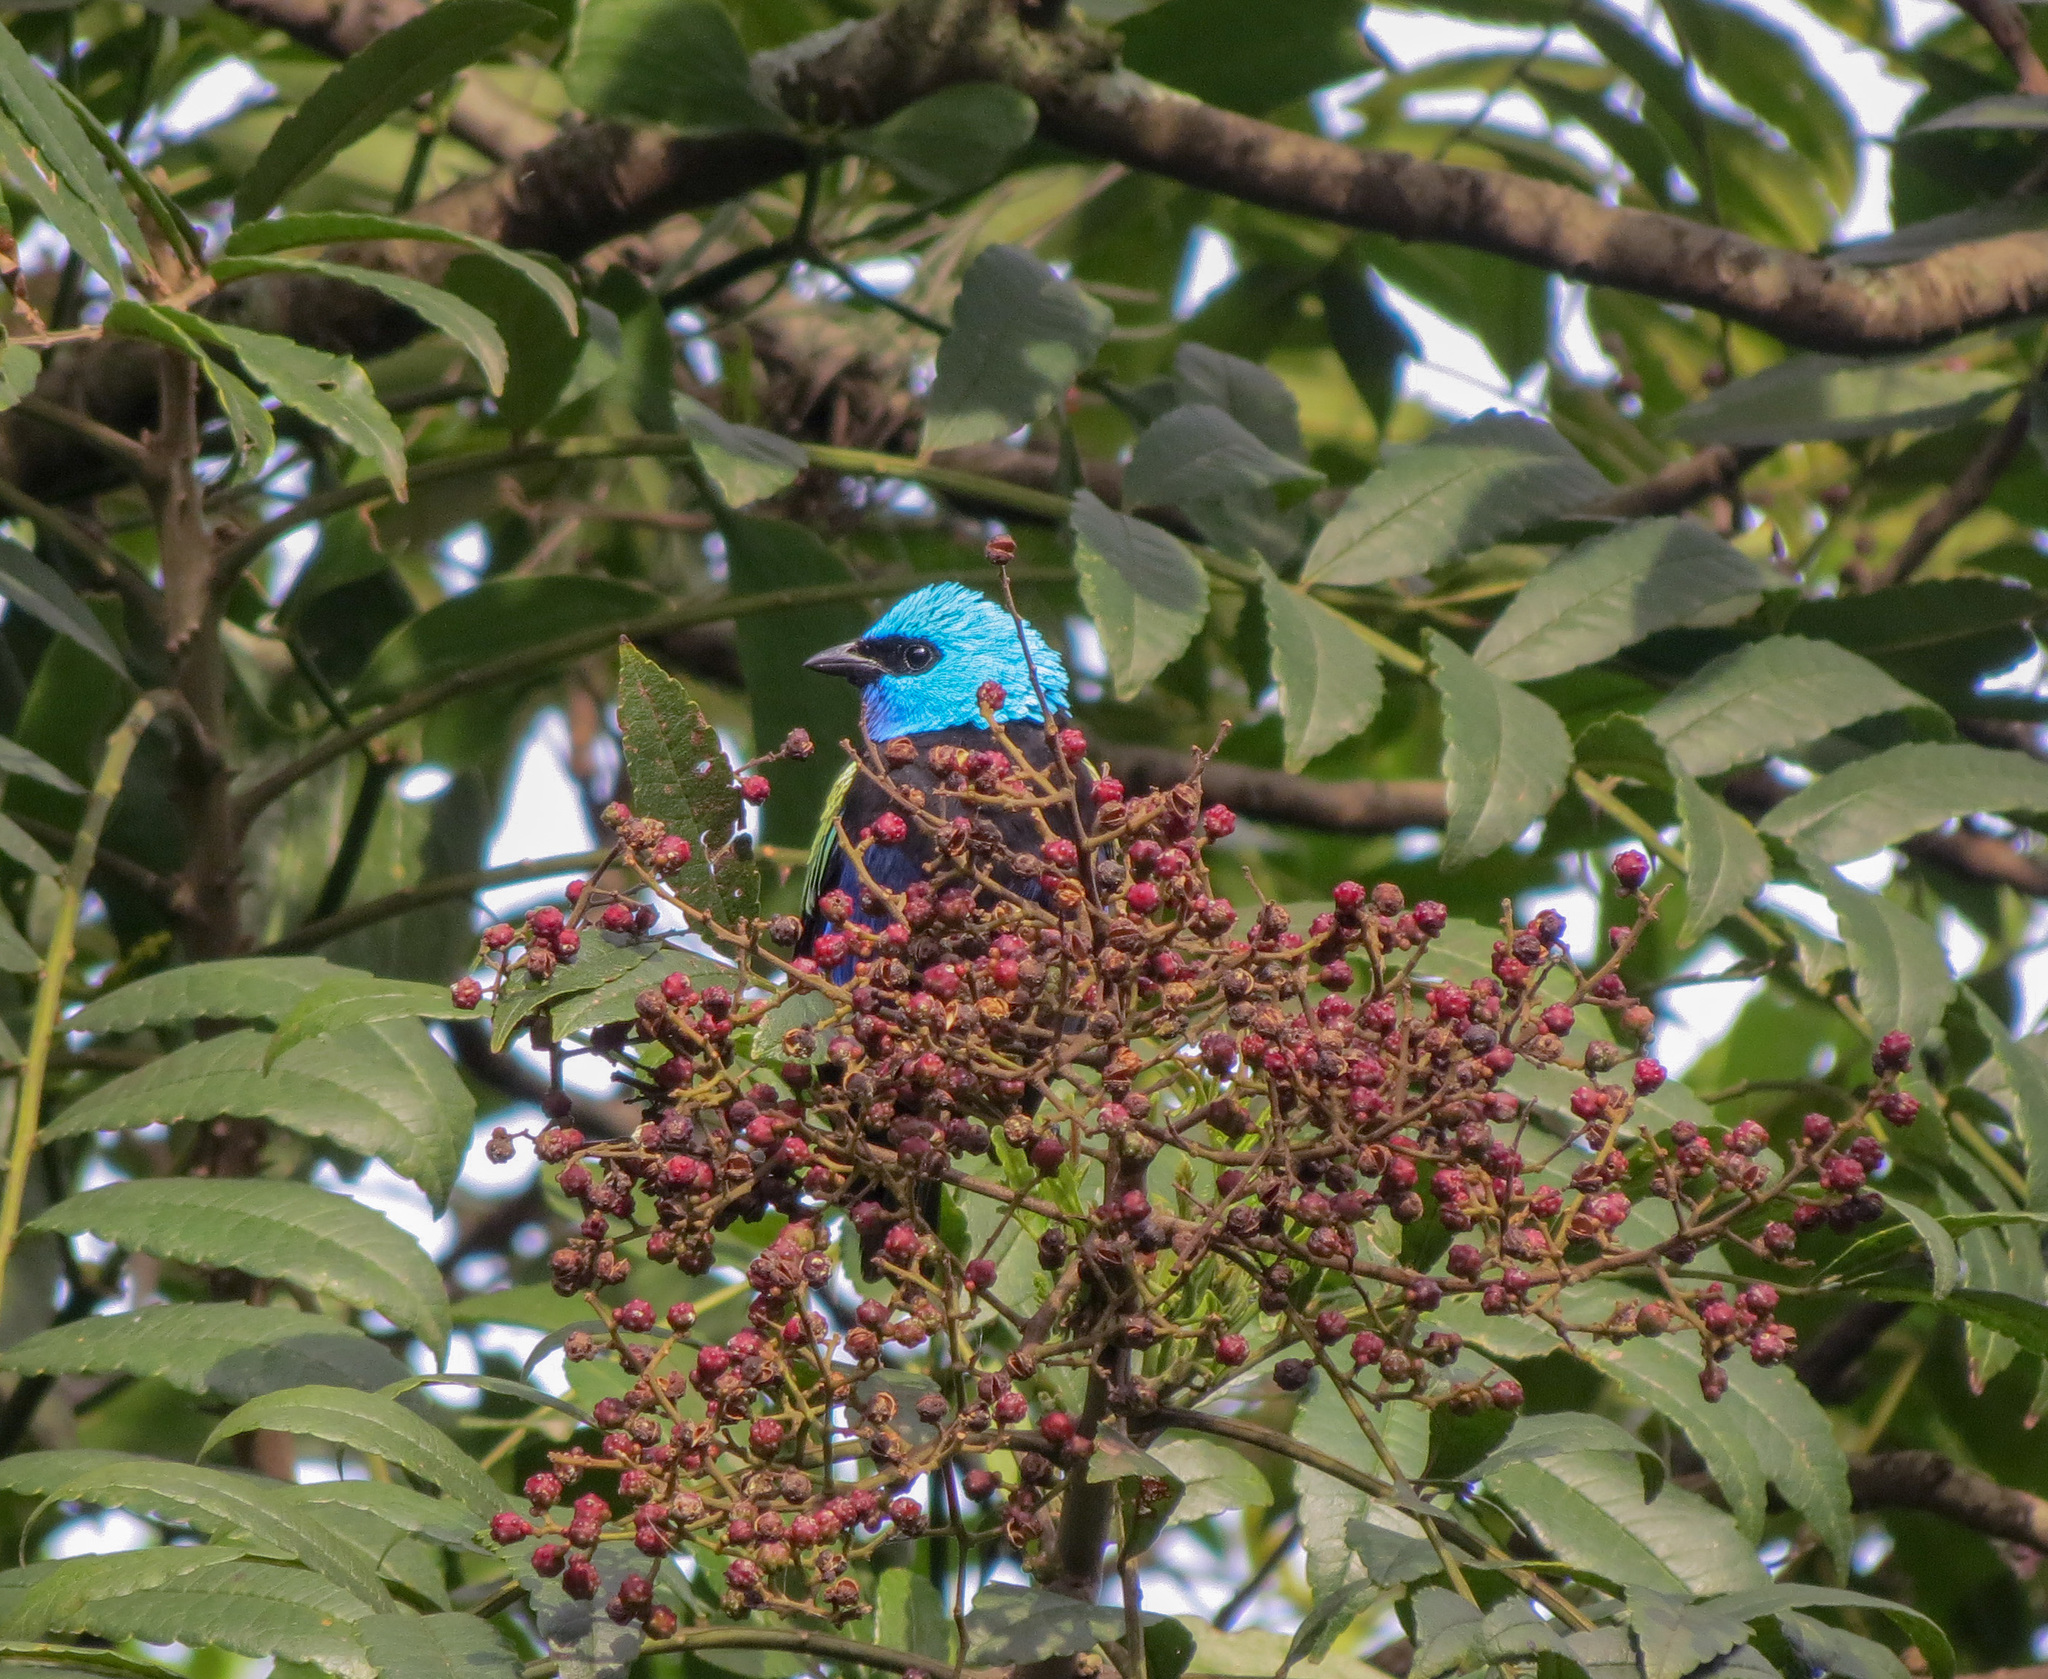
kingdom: Animalia
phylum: Chordata
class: Aves
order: Passeriformes
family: Thraupidae
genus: Stilpnia
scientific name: Stilpnia cyanicollis
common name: Blue-necked tanager
